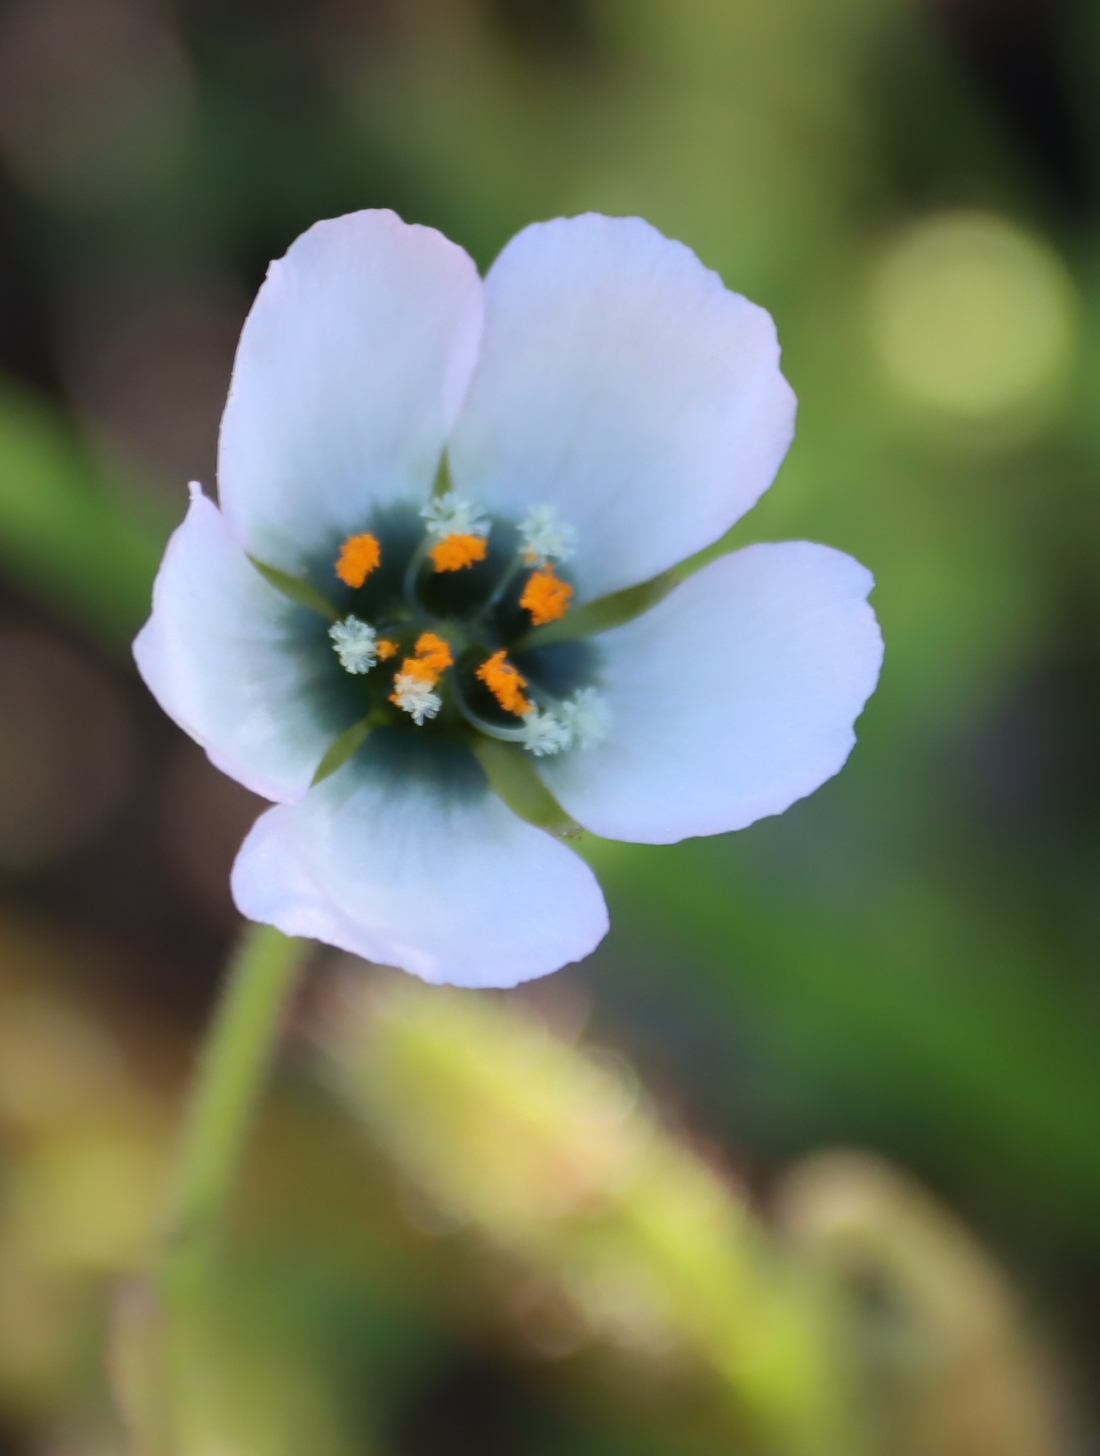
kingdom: Plantae
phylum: Tracheophyta
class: Magnoliopsida
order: Caryophyllales
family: Droseraceae
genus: Drosera
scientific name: Drosera cistiflora
